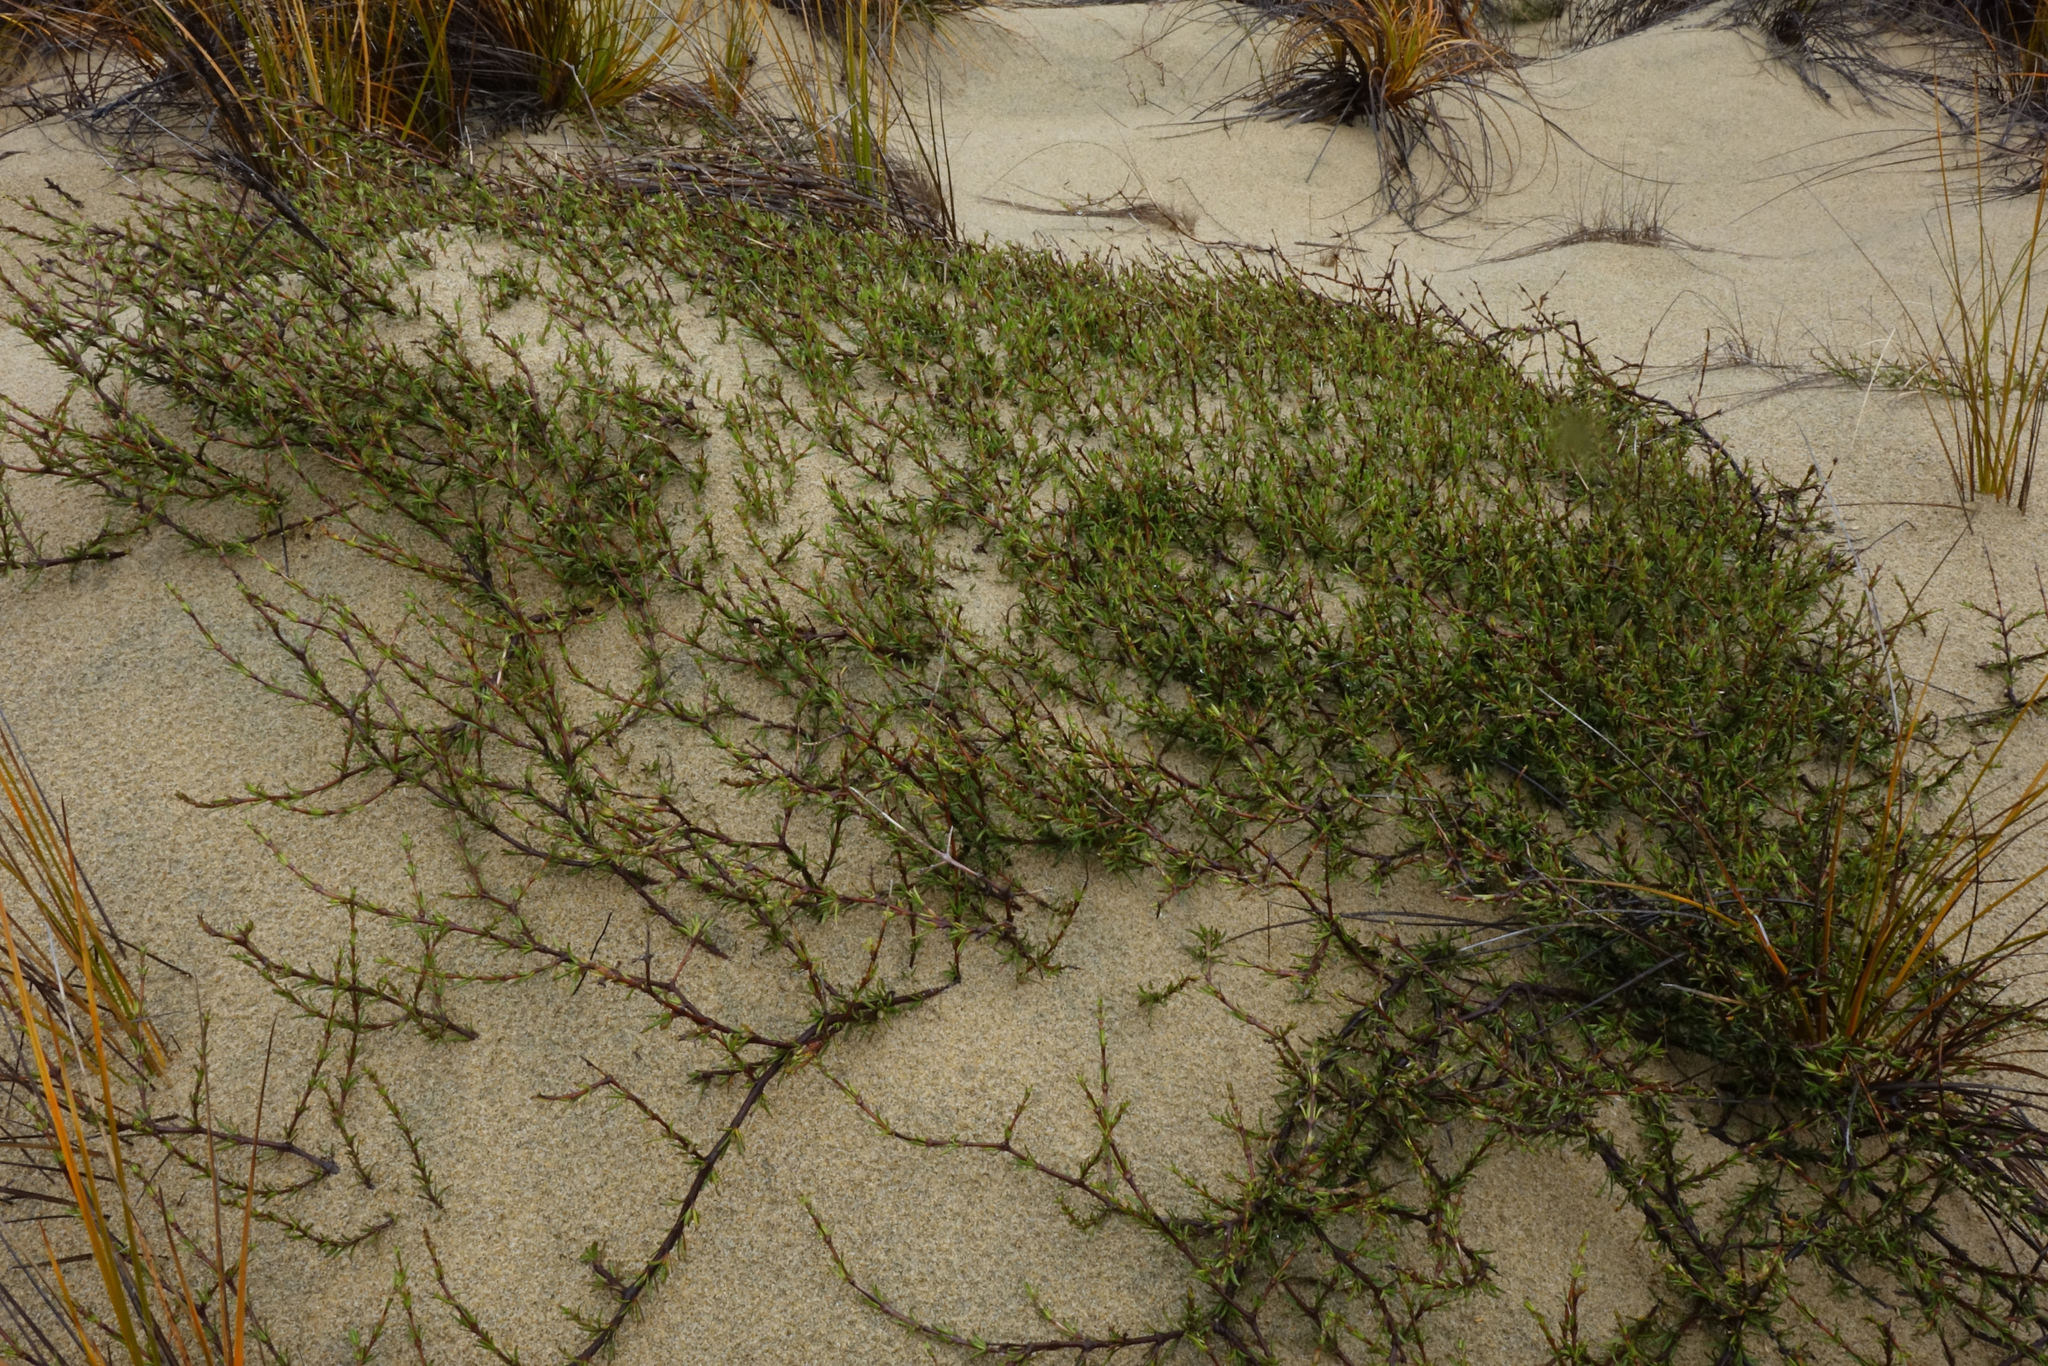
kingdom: Plantae
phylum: Tracheophyta
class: Magnoliopsida
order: Gentianales
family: Rubiaceae
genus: Coprosma
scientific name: Coprosma acerosa
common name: Sand coprosma
